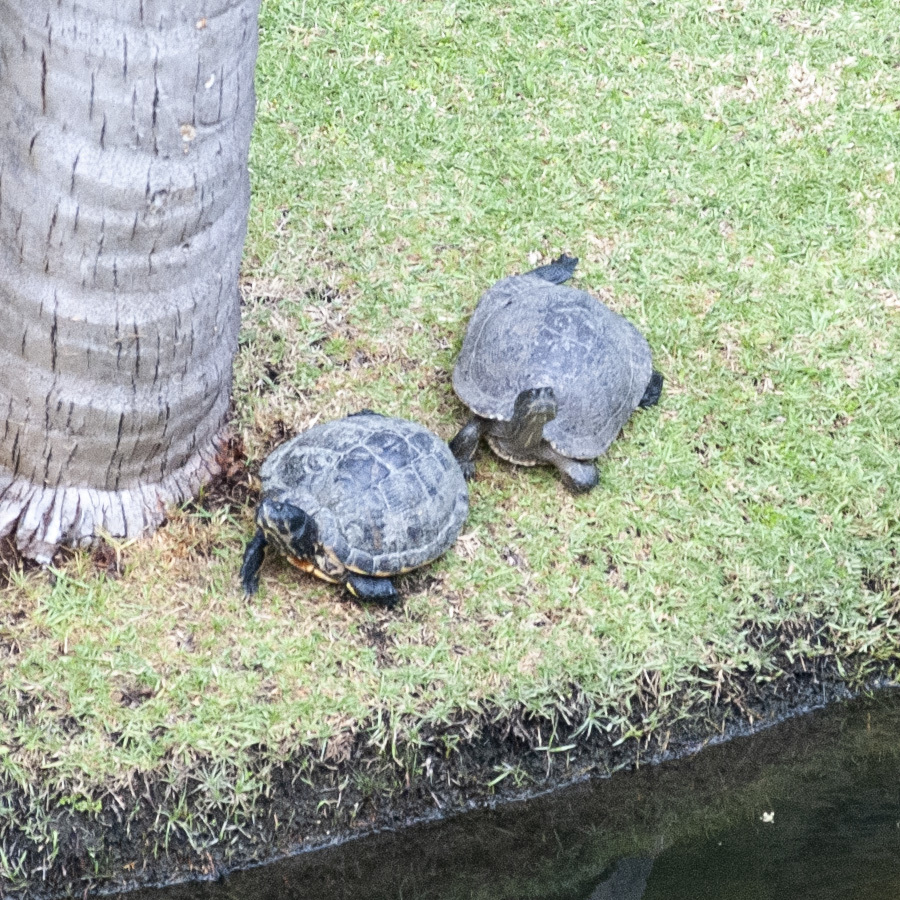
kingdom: Animalia
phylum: Chordata
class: Testudines
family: Emydidae
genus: Trachemys
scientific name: Trachemys scripta
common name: Slider
